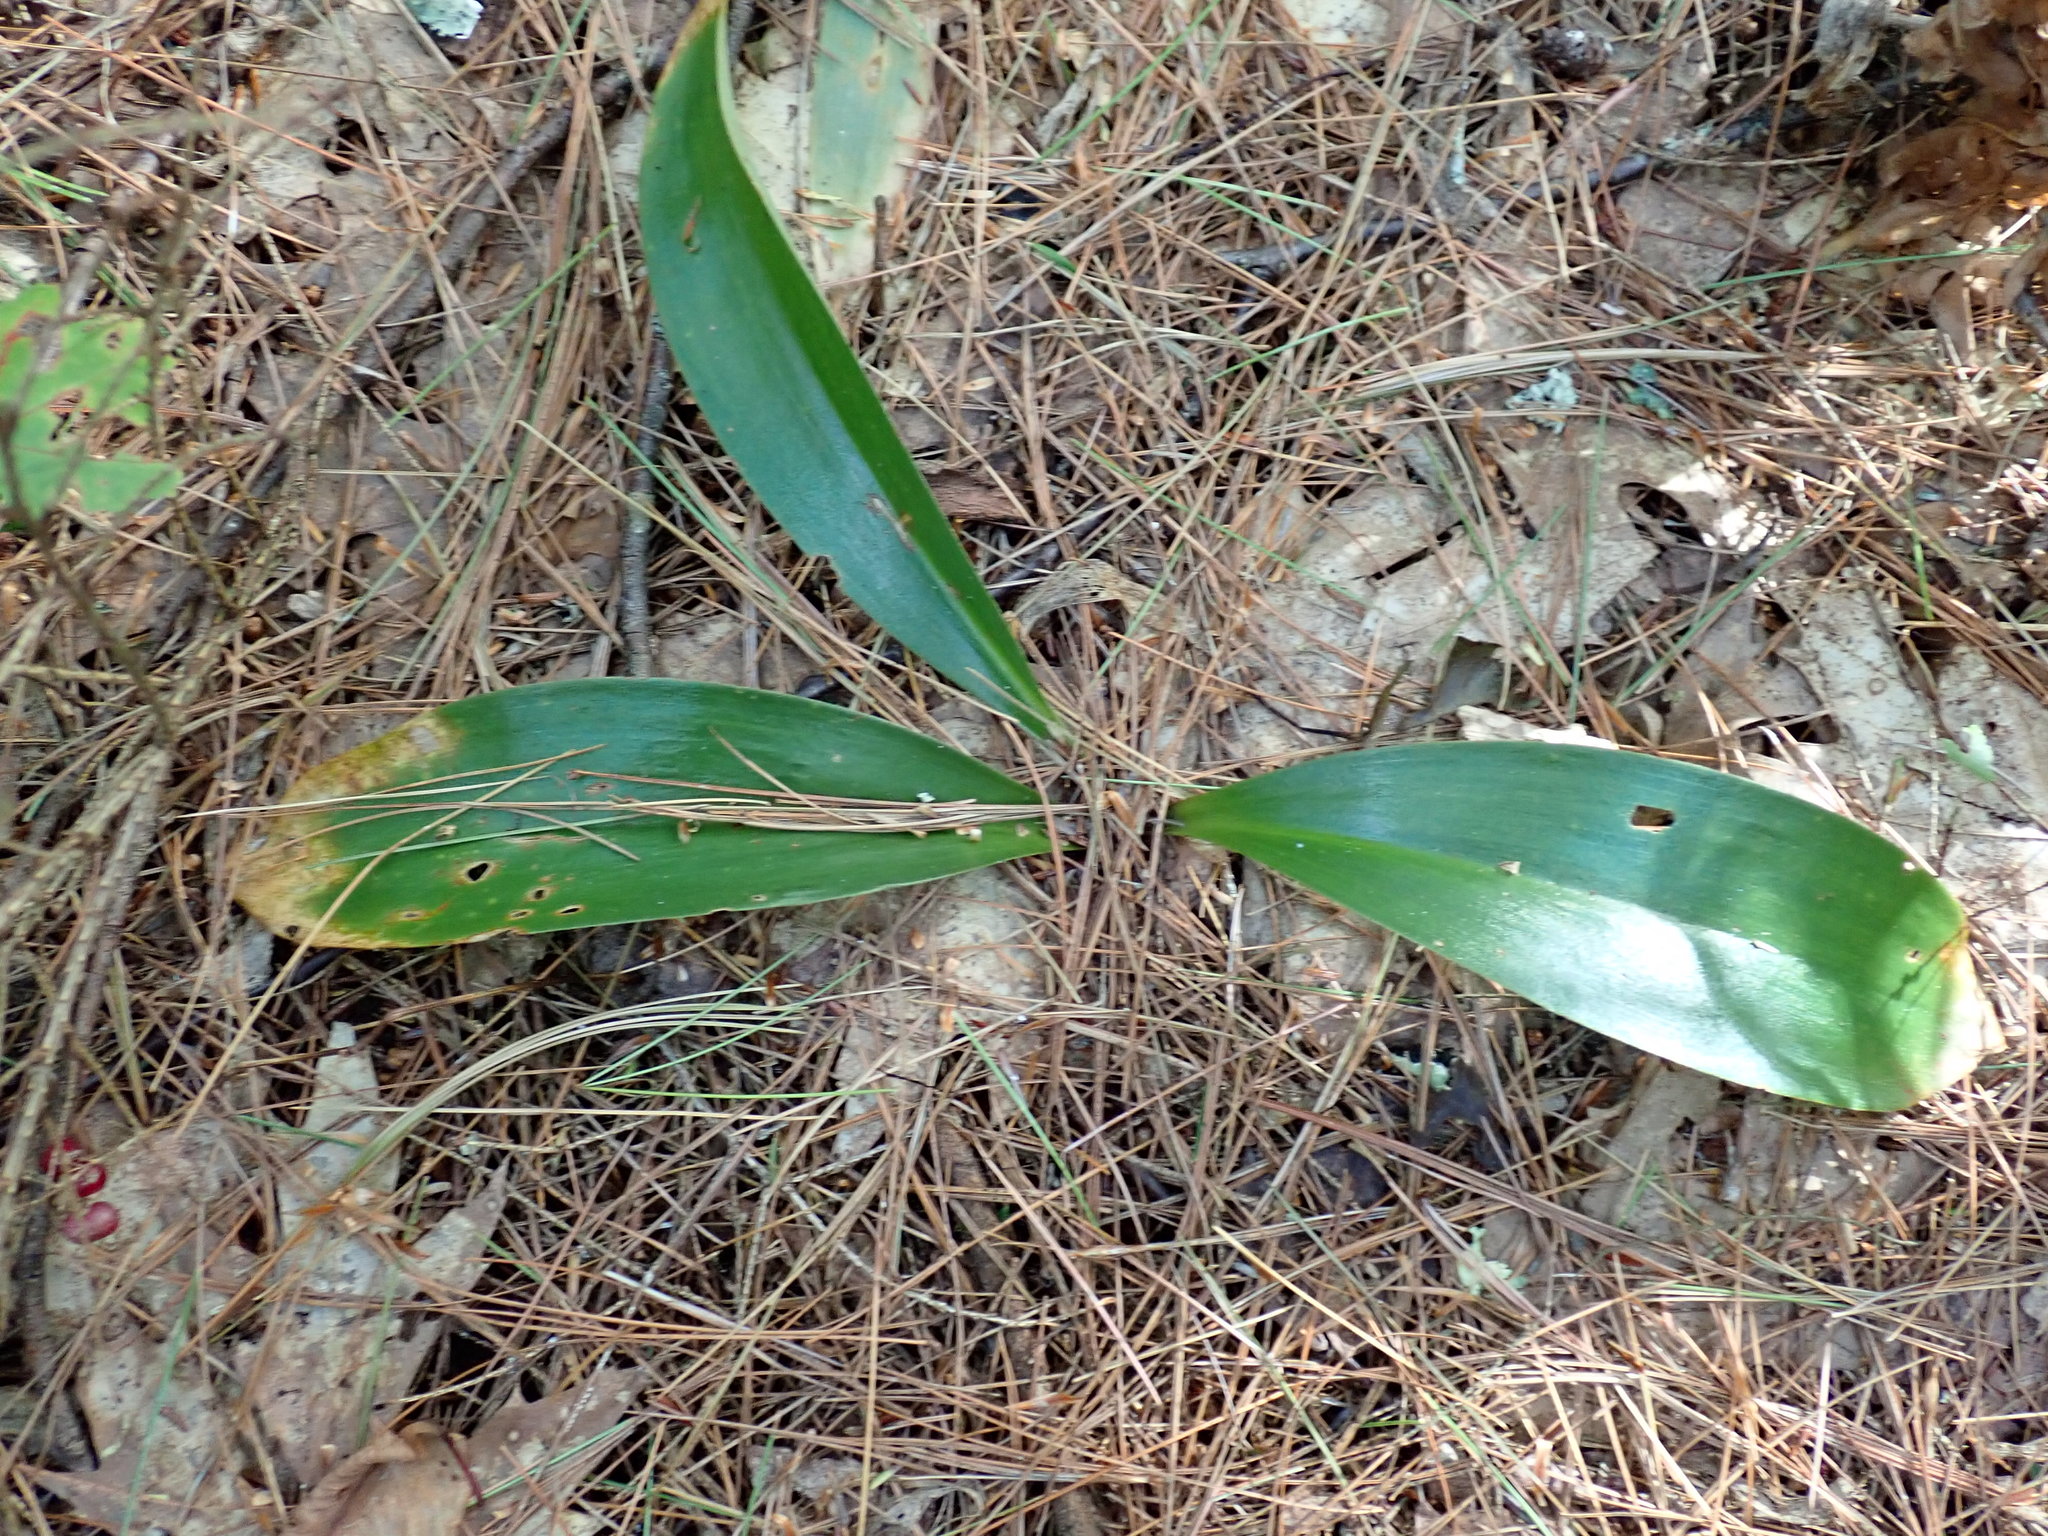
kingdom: Plantae
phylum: Tracheophyta
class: Liliopsida
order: Liliales
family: Liliaceae
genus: Clintonia
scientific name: Clintonia borealis
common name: Yellow clintonia
